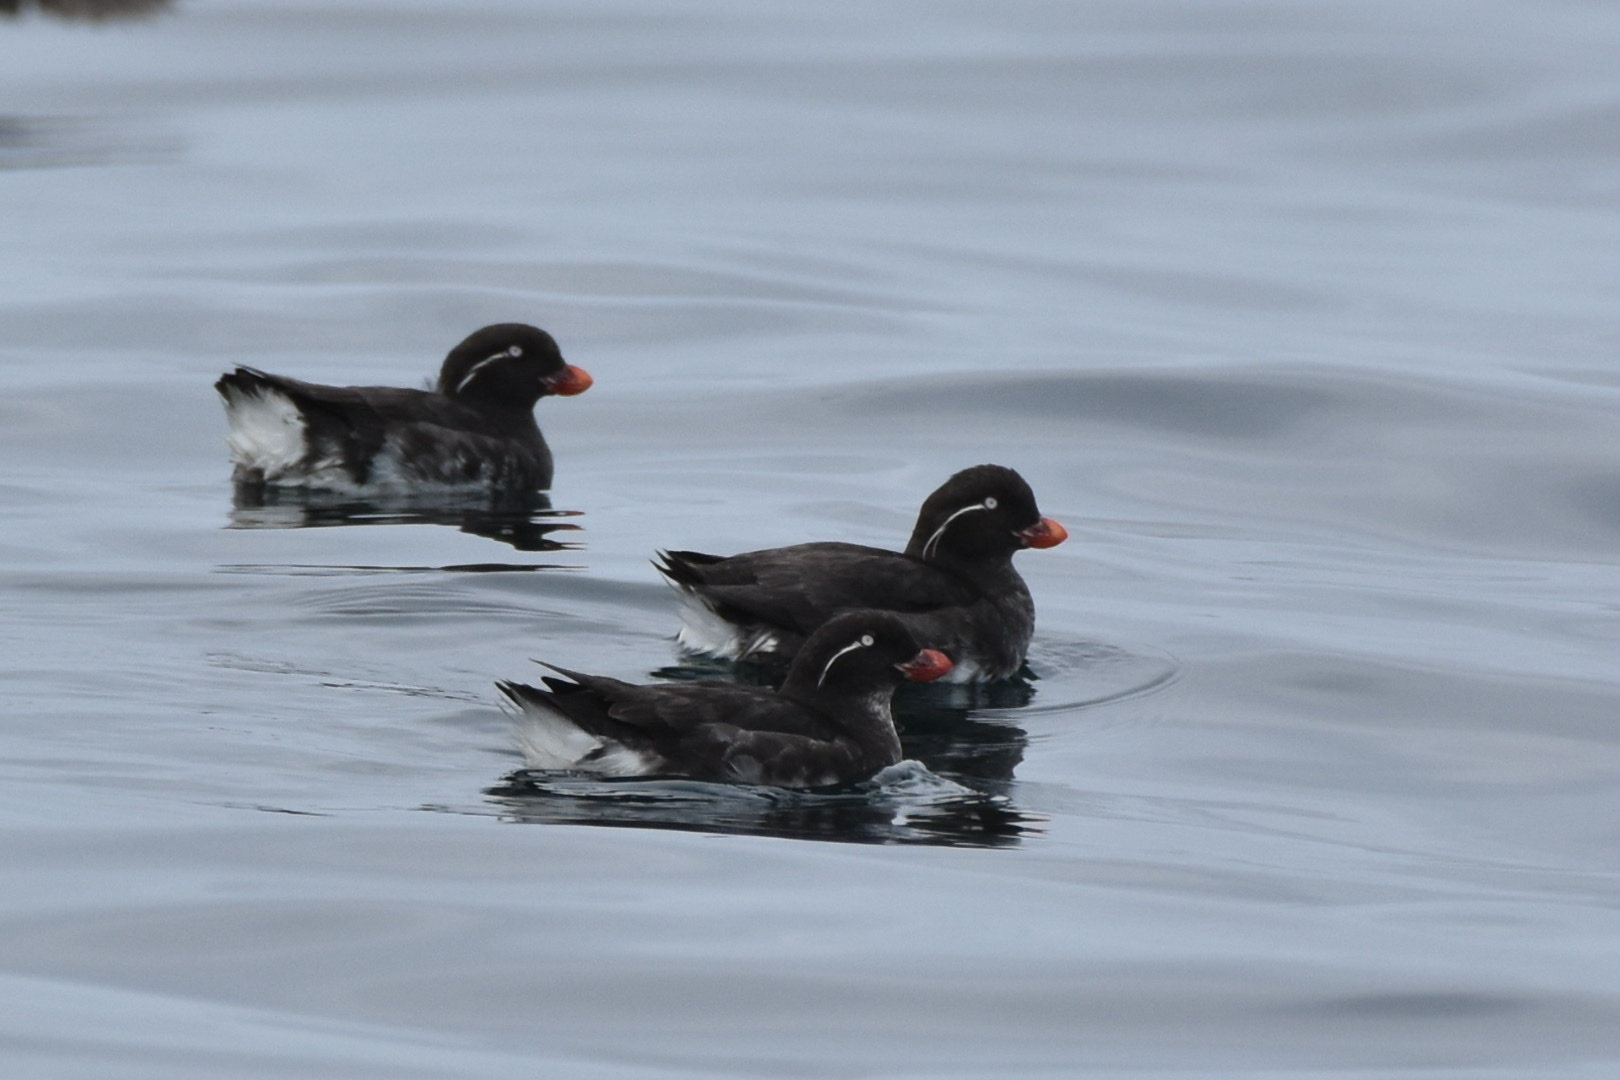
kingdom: Animalia
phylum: Chordata
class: Aves
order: Charadriiformes
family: Alcidae
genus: Aethia
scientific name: Aethia psittacula
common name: Parakeet auklet
